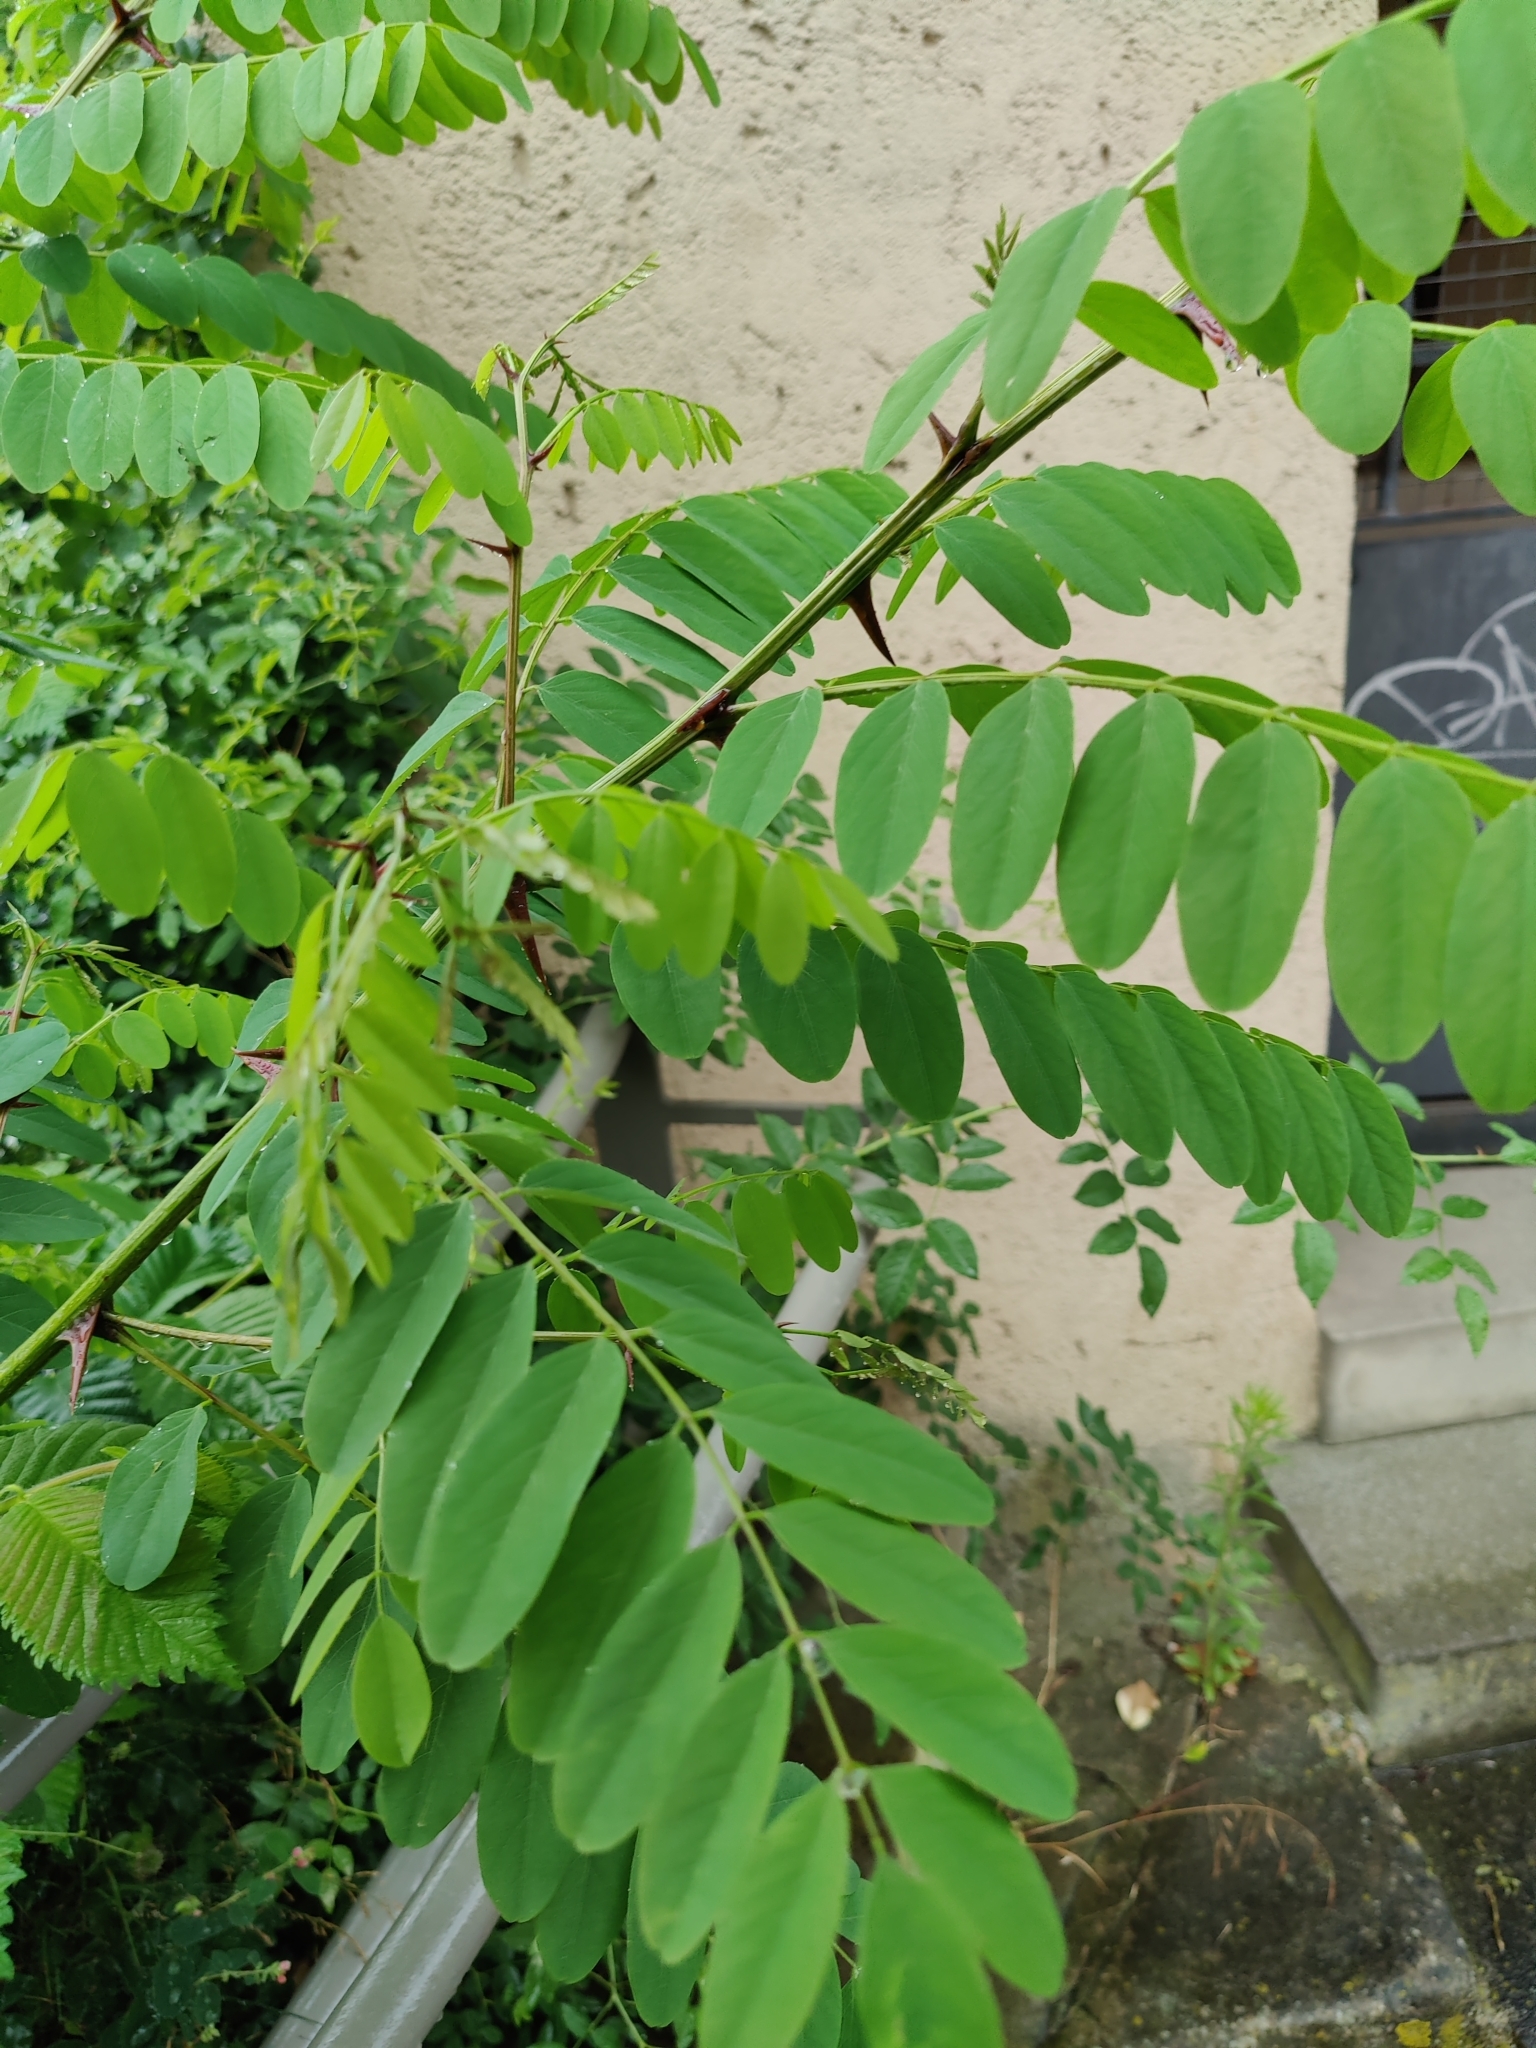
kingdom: Plantae
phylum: Tracheophyta
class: Magnoliopsida
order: Fabales
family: Fabaceae
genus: Robinia
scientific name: Robinia pseudoacacia
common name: Black locust
